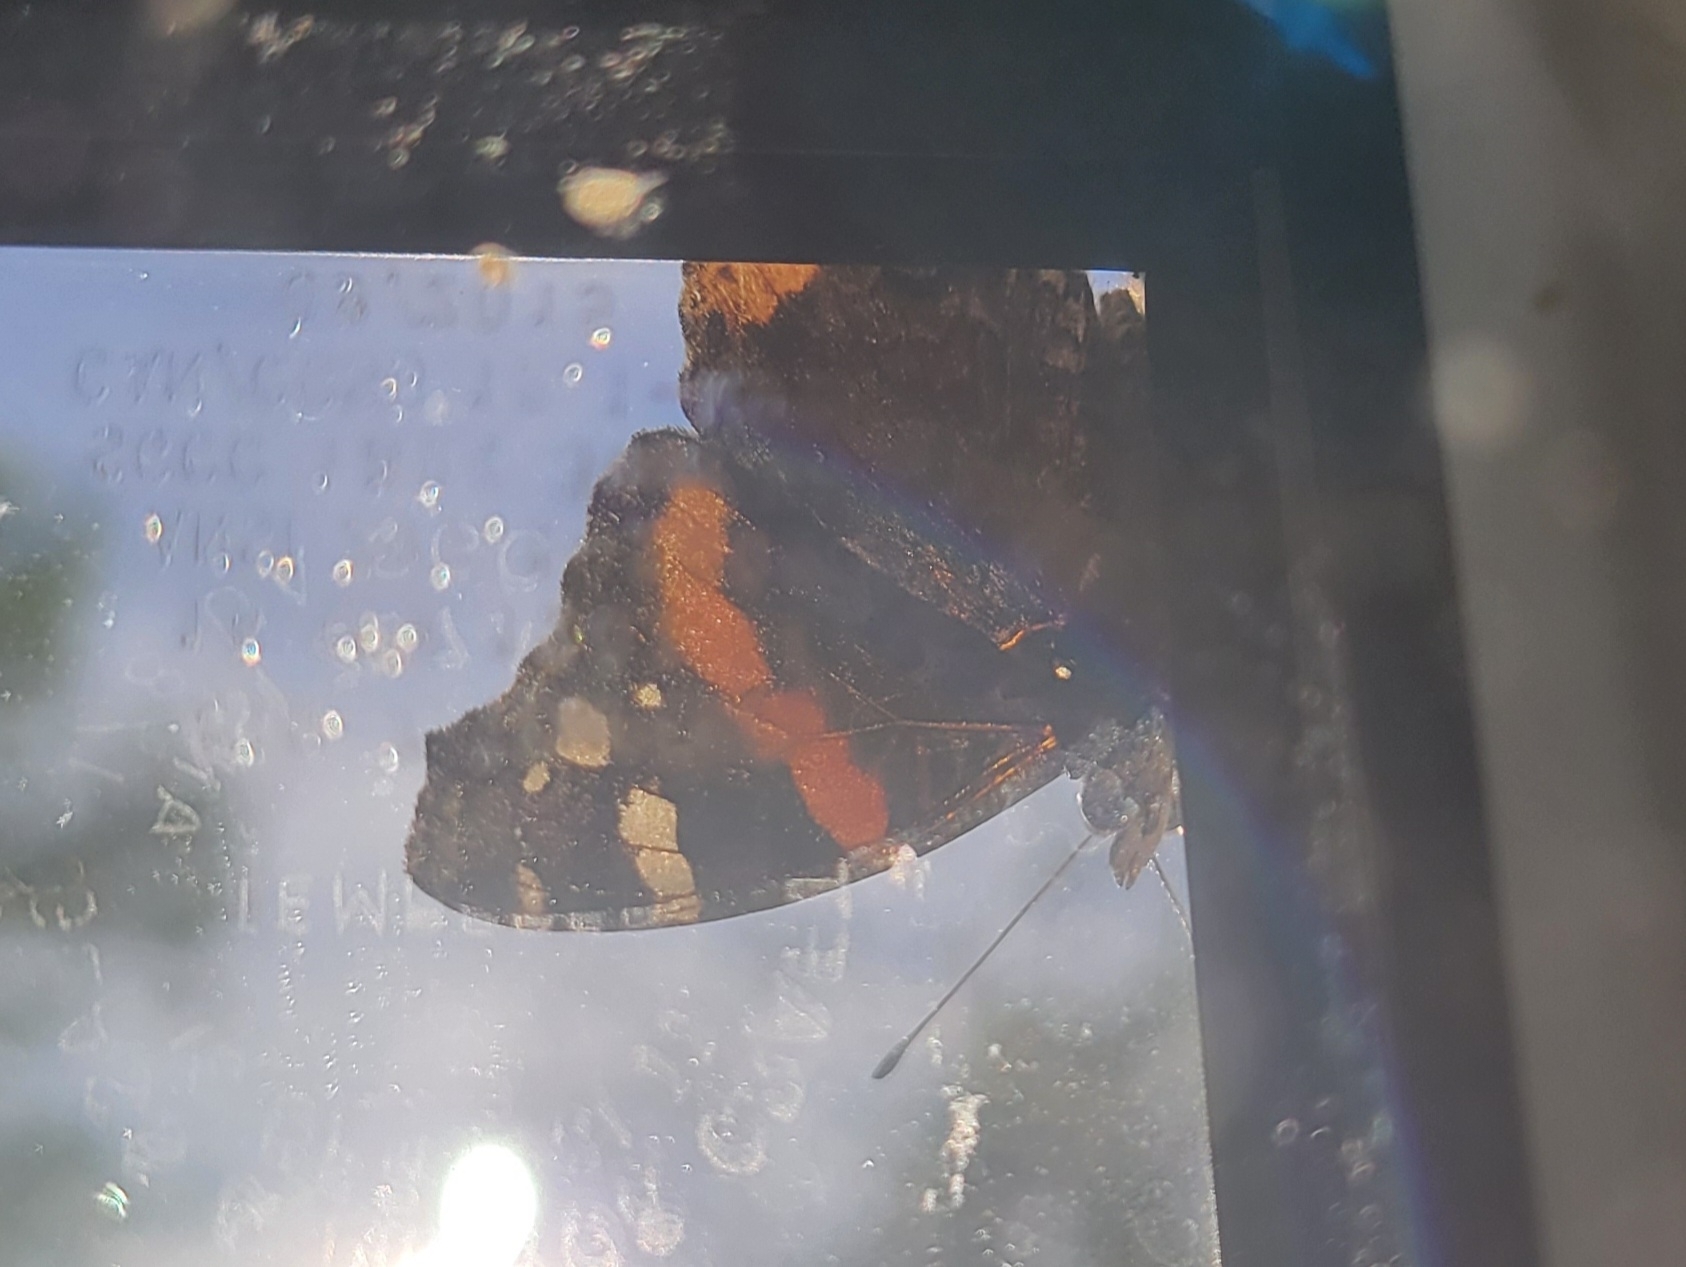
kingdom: Animalia
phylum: Arthropoda
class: Insecta
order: Lepidoptera
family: Nymphalidae
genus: Vanessa
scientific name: Vanessa atalanta
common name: Red admiral
